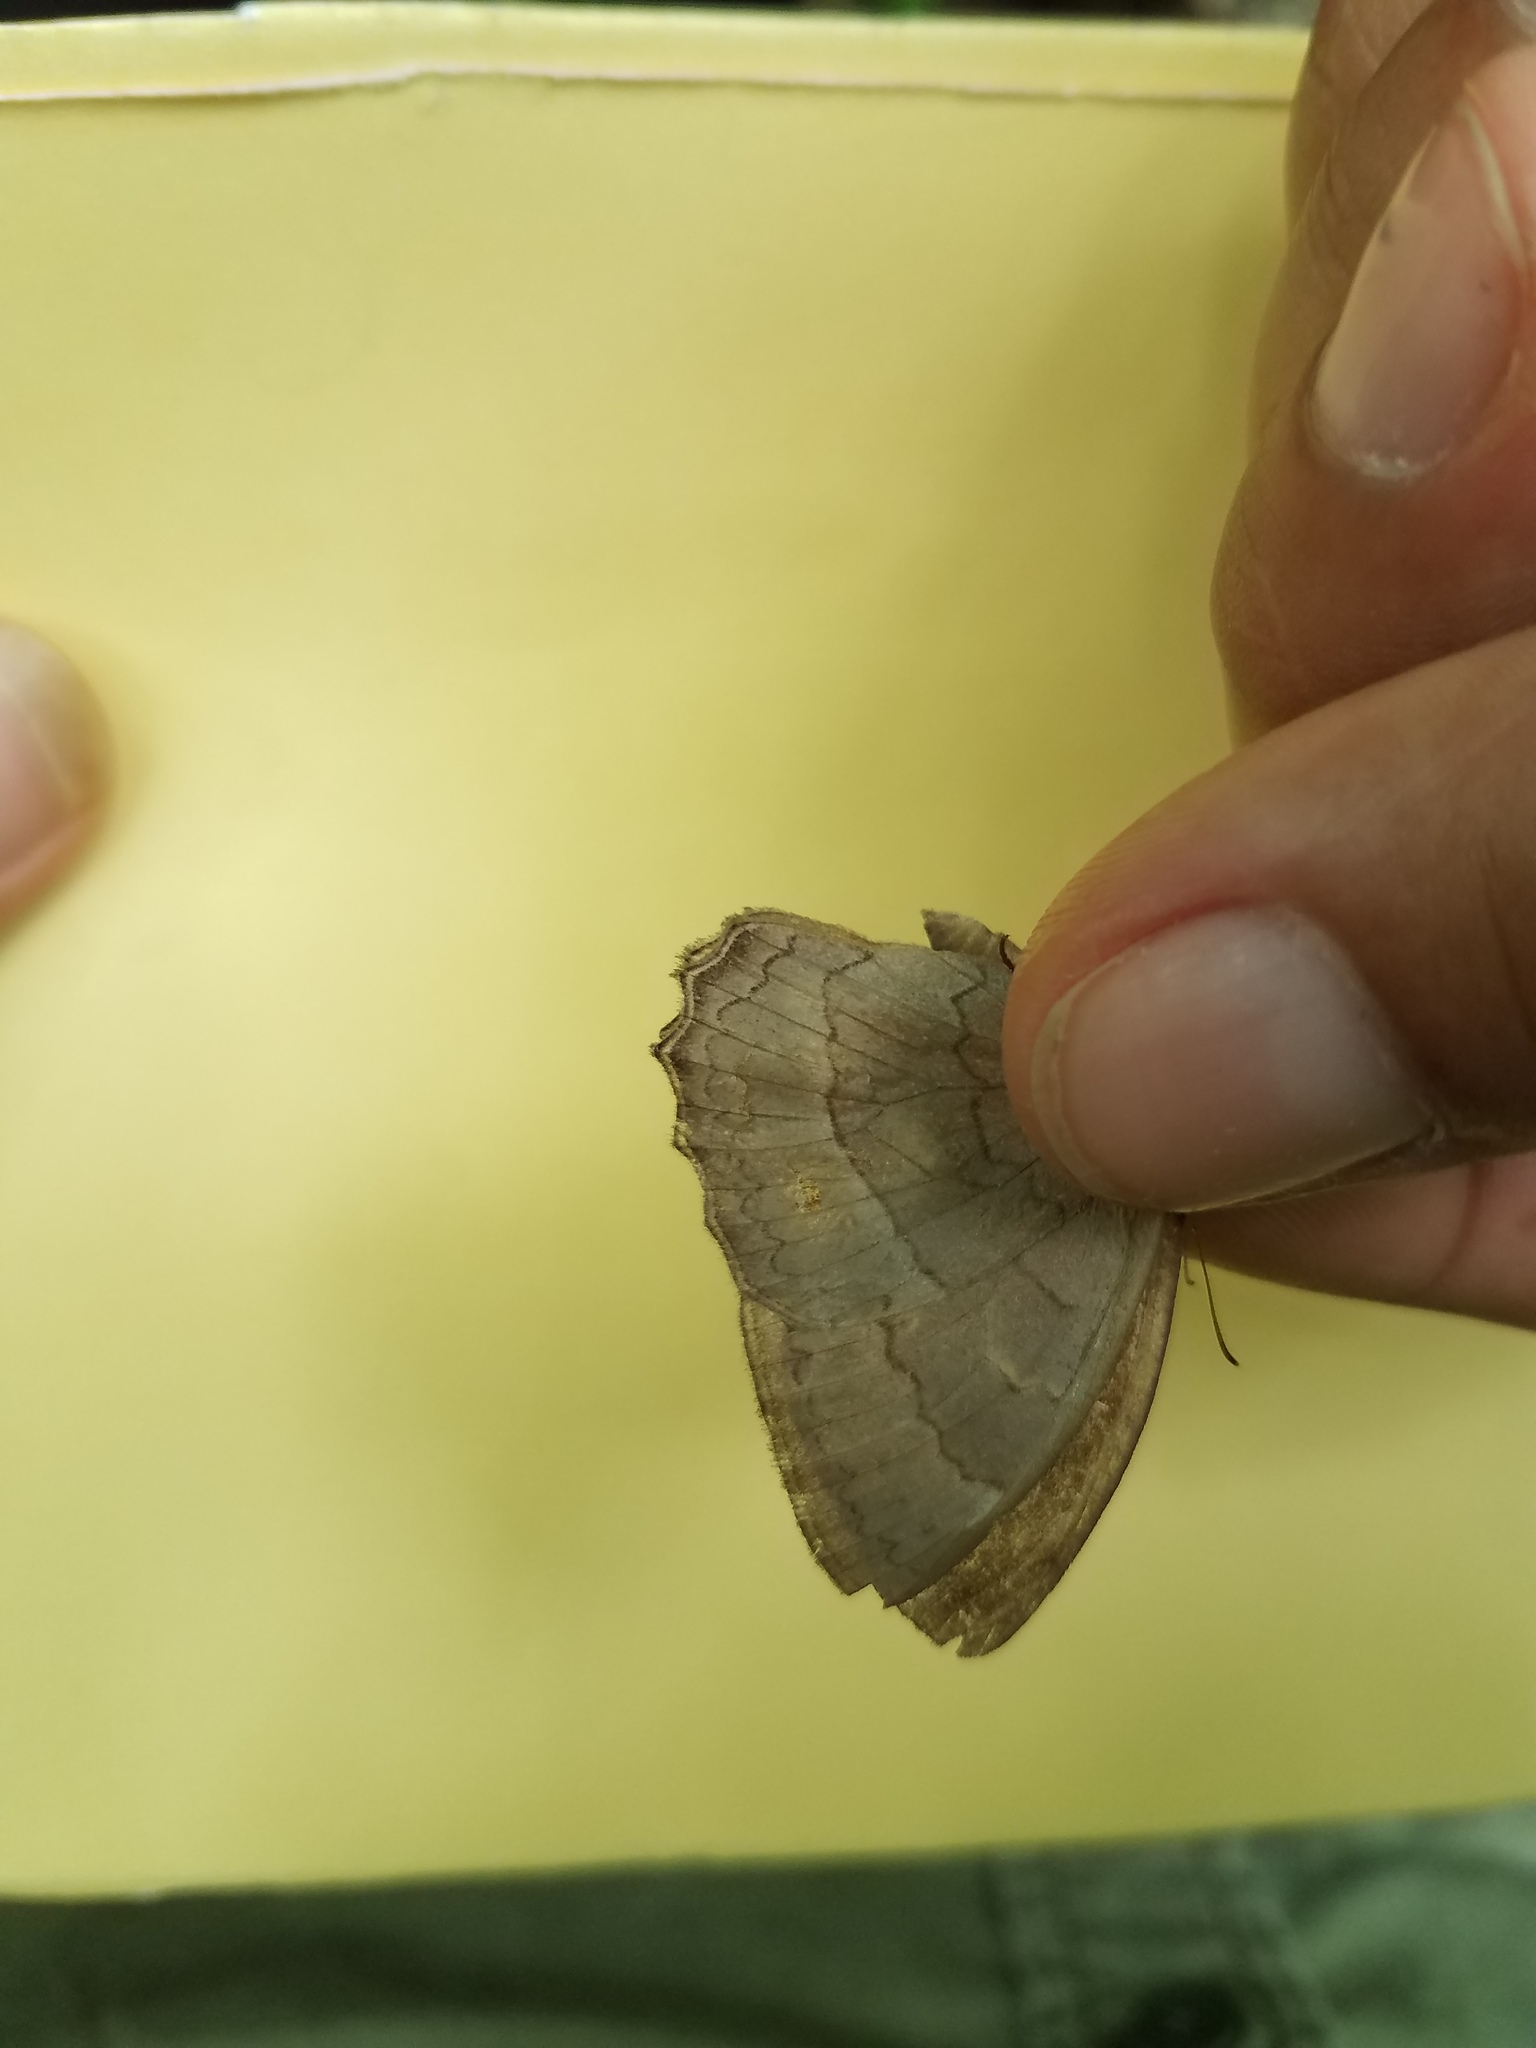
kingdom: Animalia
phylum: Arthropoda
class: Insecta
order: Lepidoptera
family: Nymphalidae
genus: Taygetina
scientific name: Taygetina kerea
